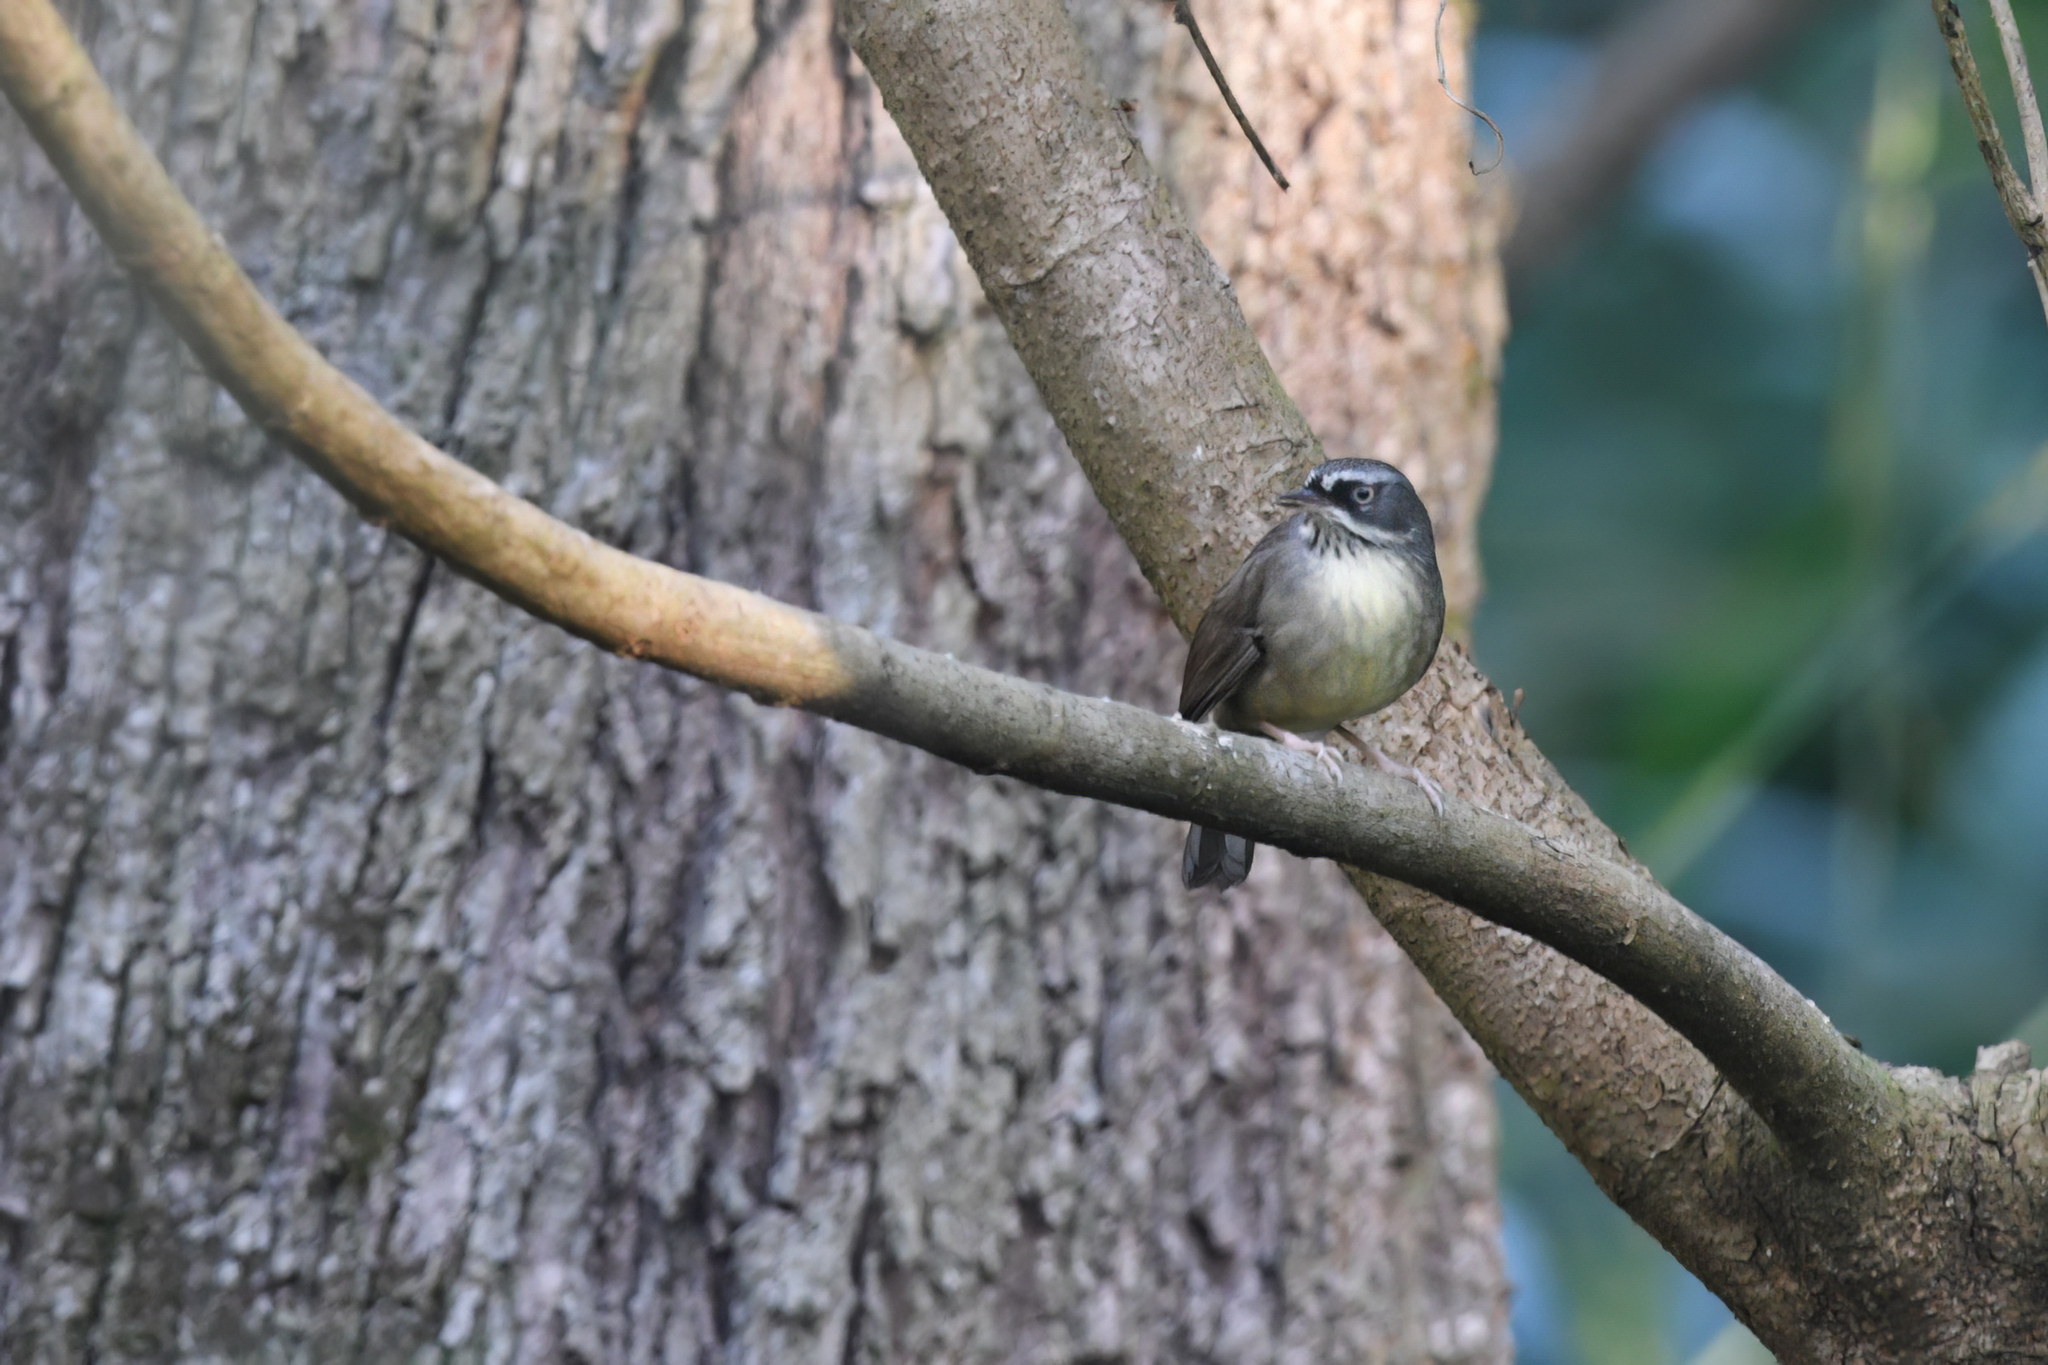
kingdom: Animalia
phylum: Chordata
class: Aves
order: Passeriformes
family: Acanthizidae
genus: Sericornis
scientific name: Sericornis frontalis
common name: White-browed scrubwren
